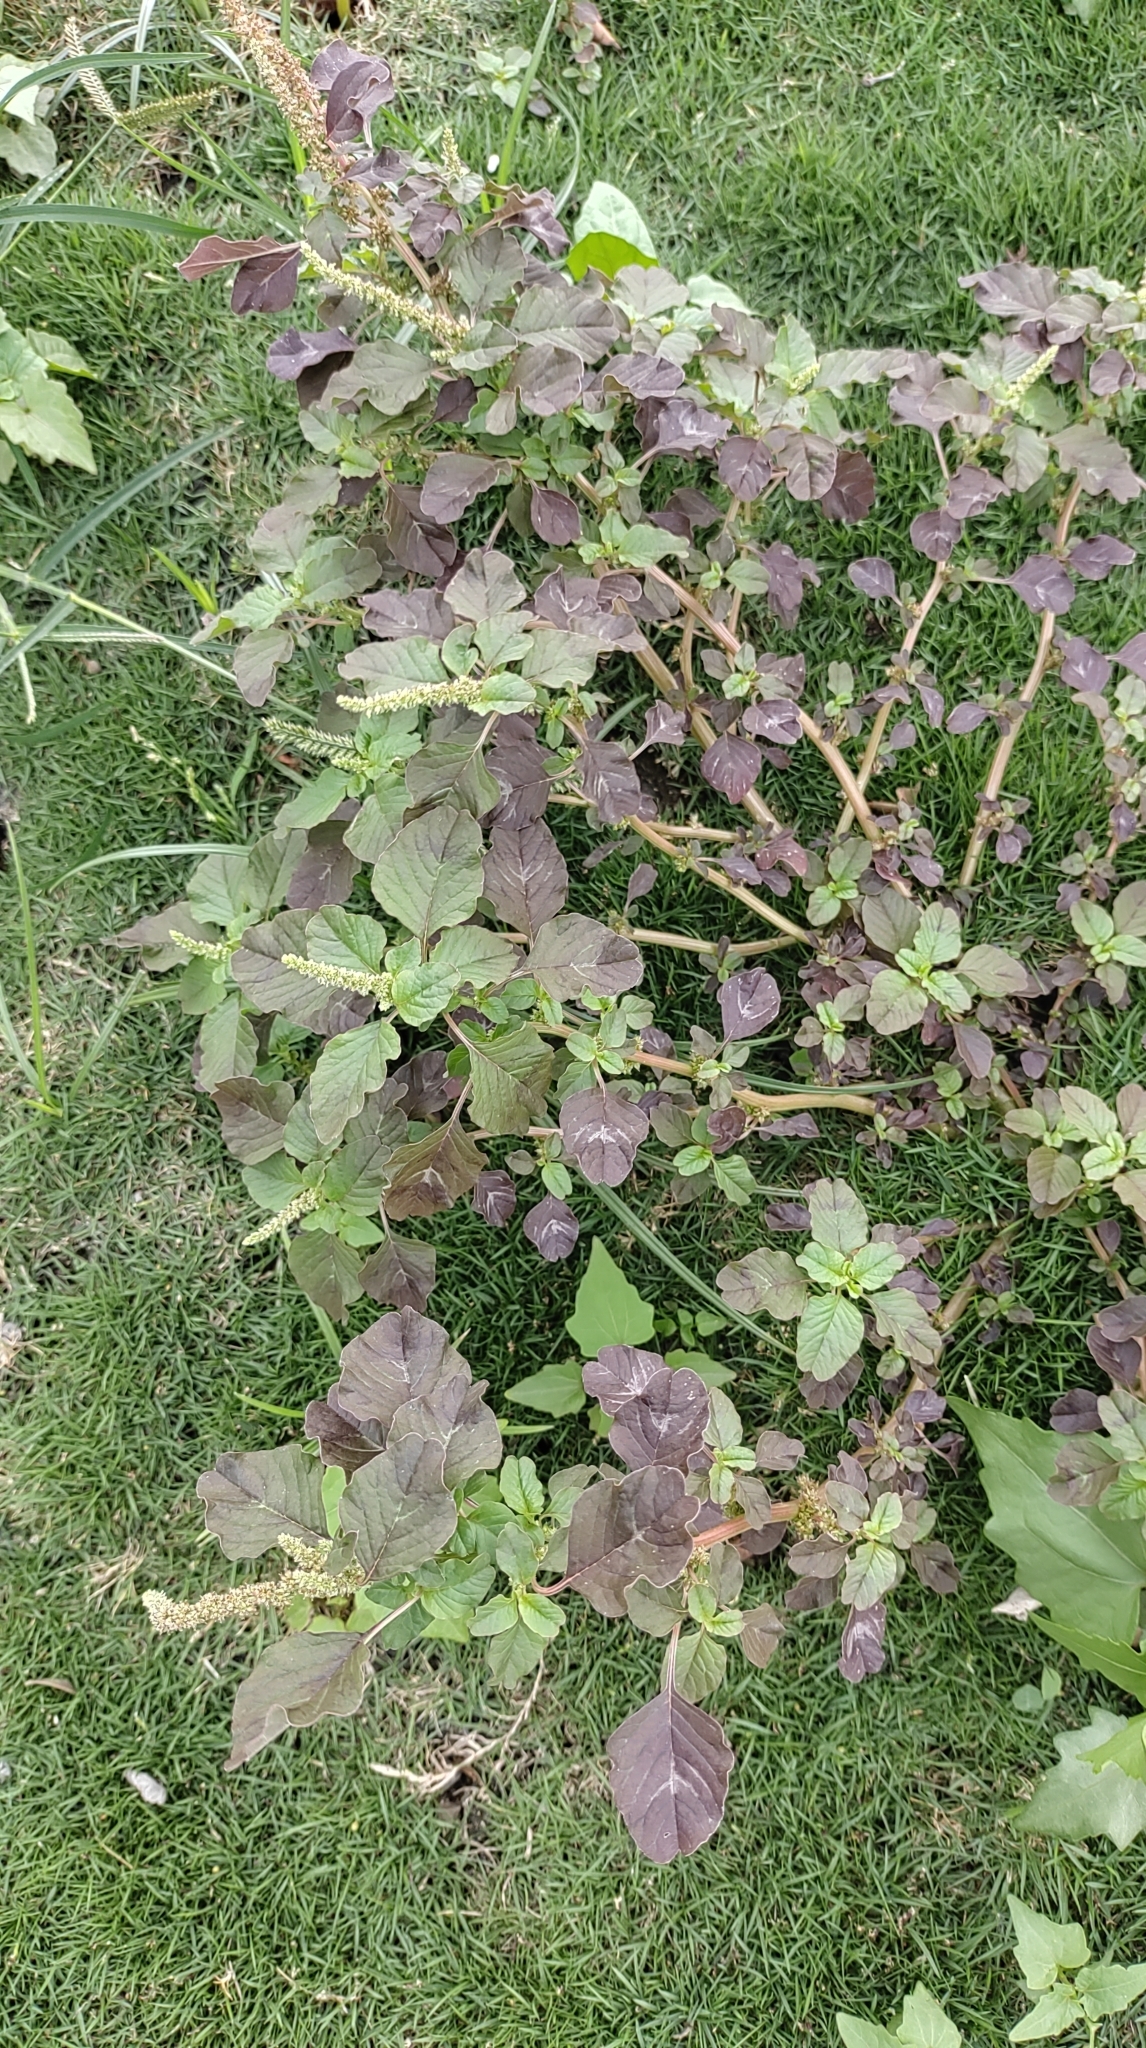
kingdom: Plantae
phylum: Tracheophyta
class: Magnoliopsida
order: Caryophyllales
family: Amaranthaceae
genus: Amaranthus
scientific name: Amaranthus blitum
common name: Purple amaranth
